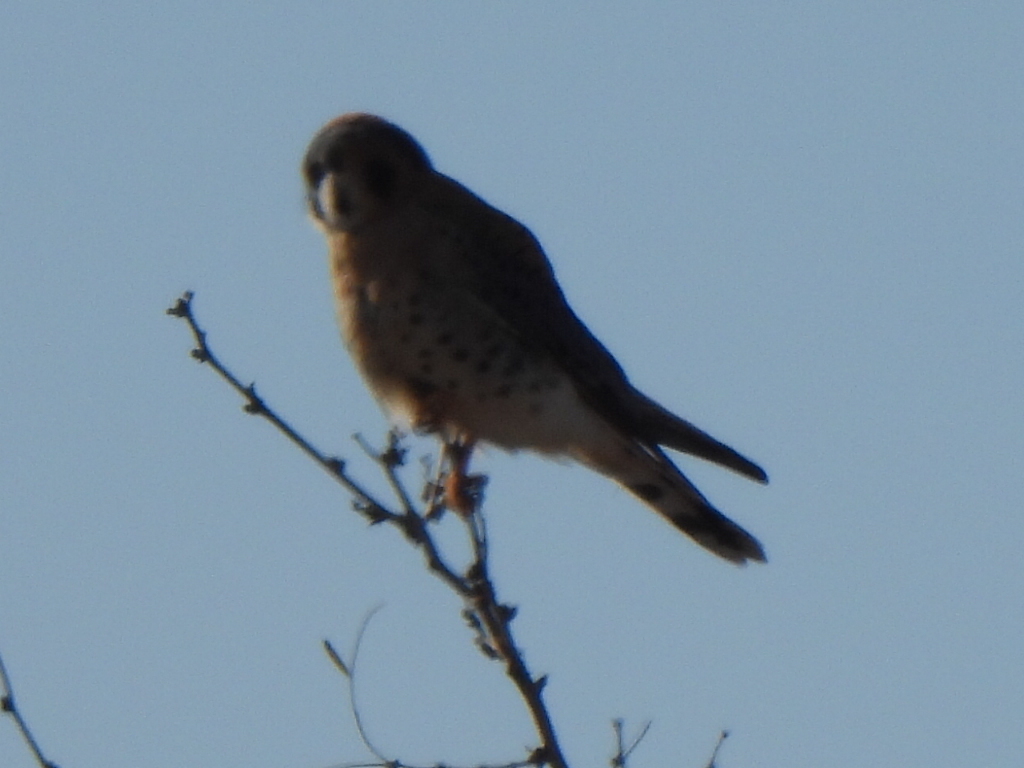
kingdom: Animalia
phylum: Chordata
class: Aves
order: Falconiformes
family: Falconidae
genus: Falco
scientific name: Falco sparverius
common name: American kestrel
